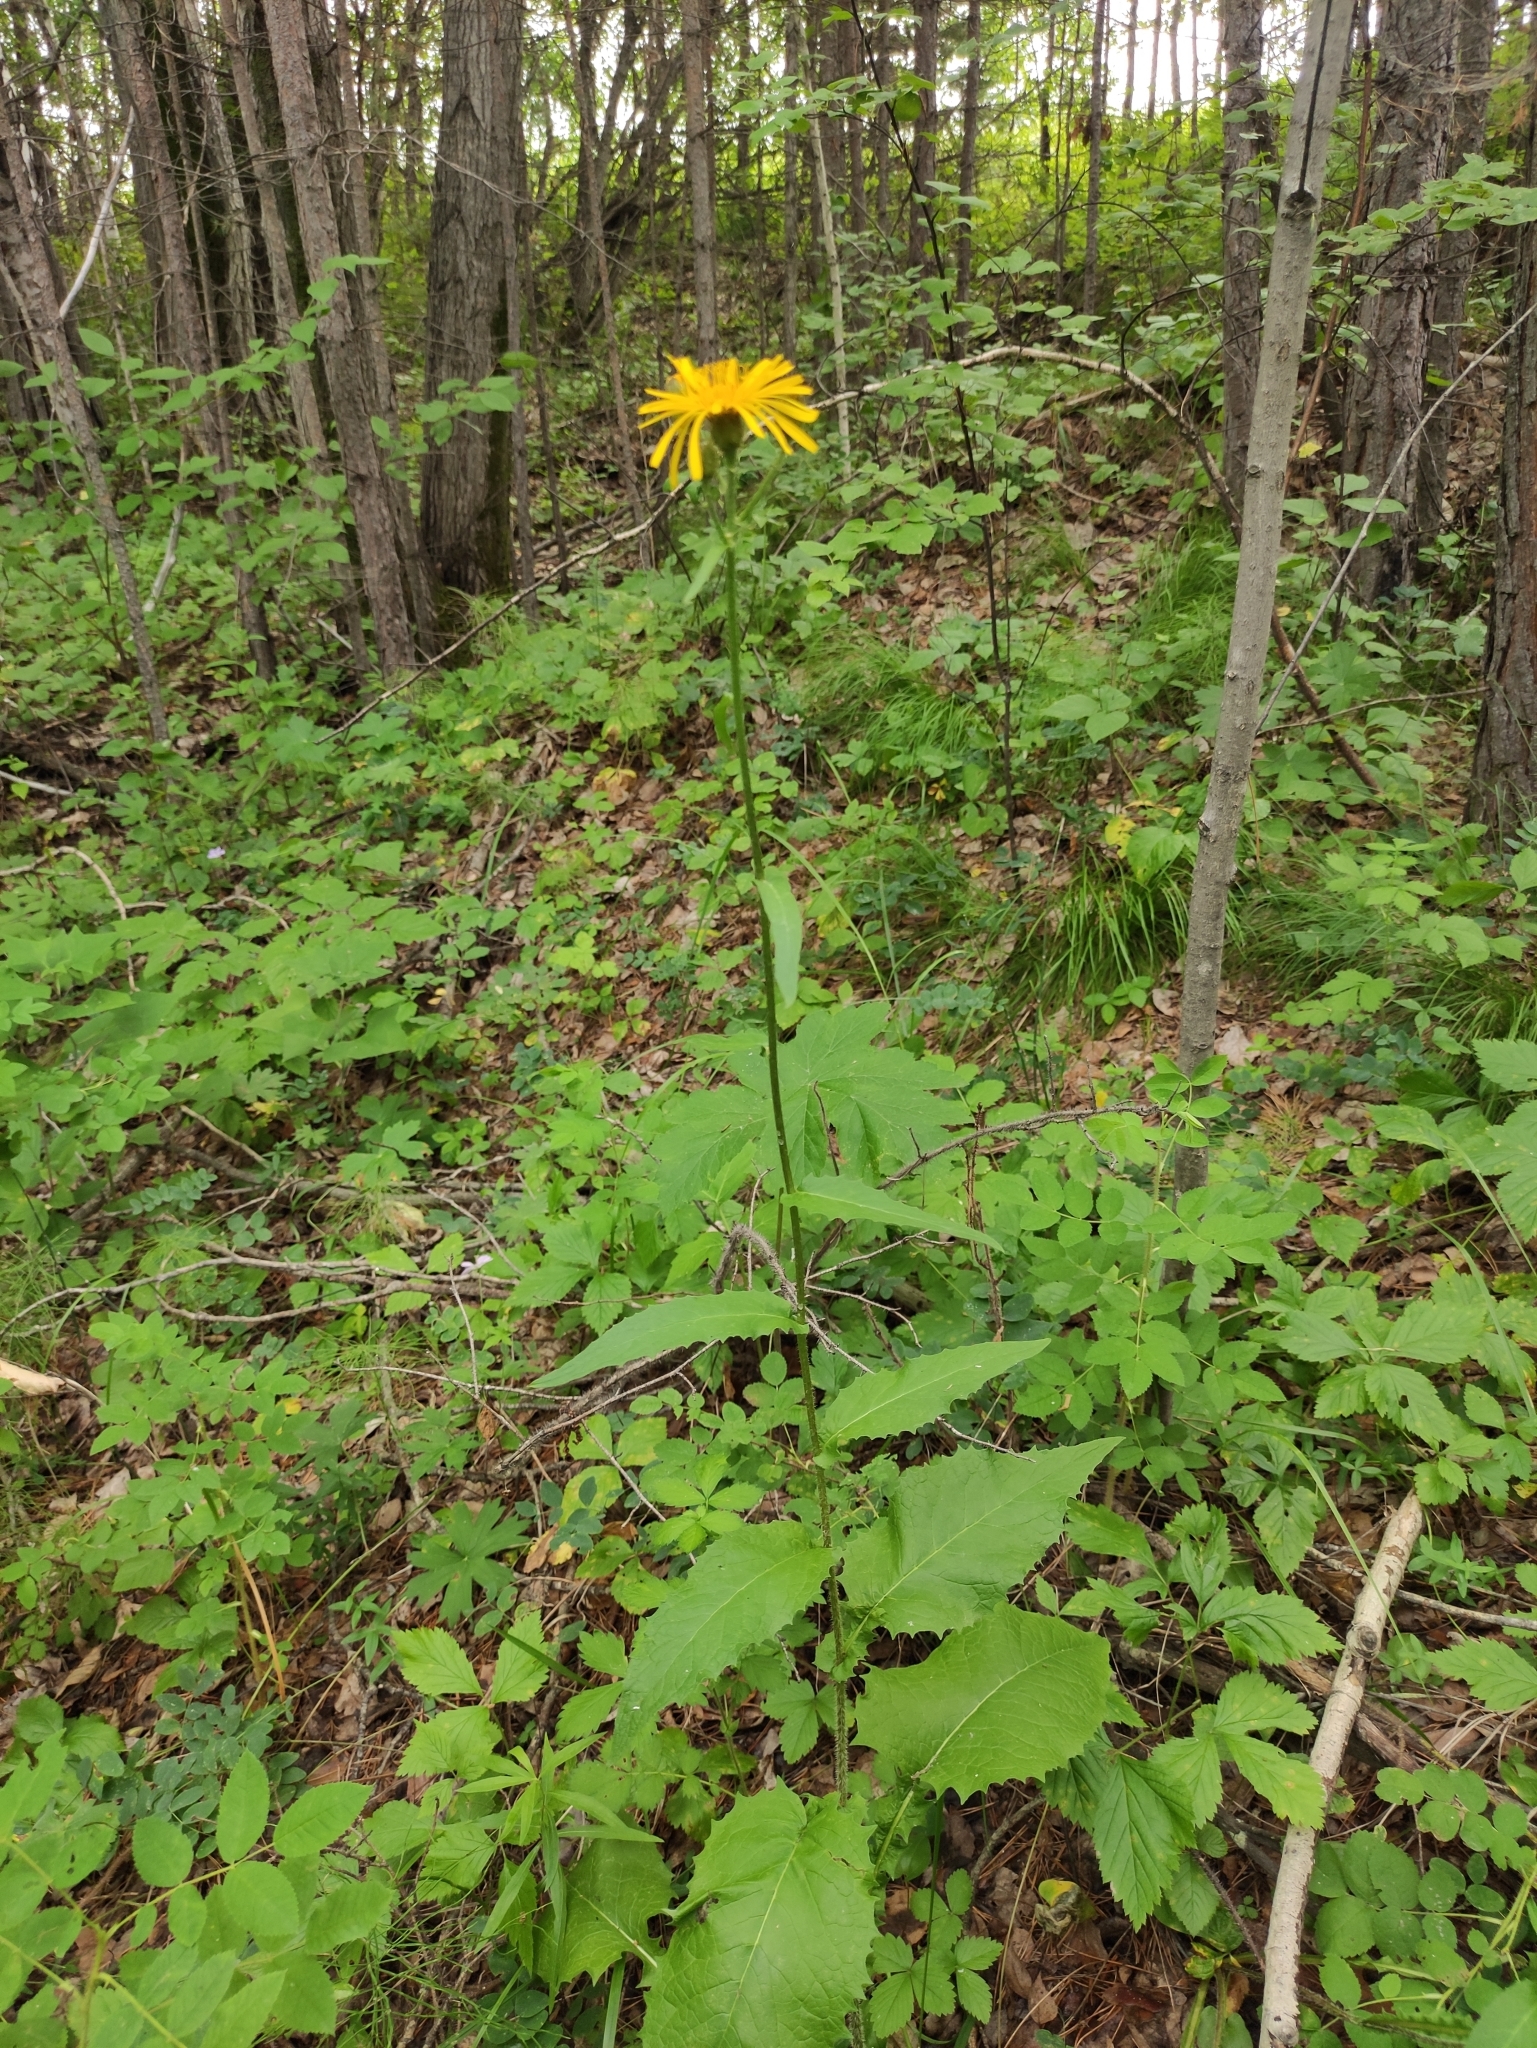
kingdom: Plantae
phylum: Tracheophyta
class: Magnoliopsida
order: Asterales
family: Asteraceae
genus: Crepis
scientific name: Crepis sibirica
